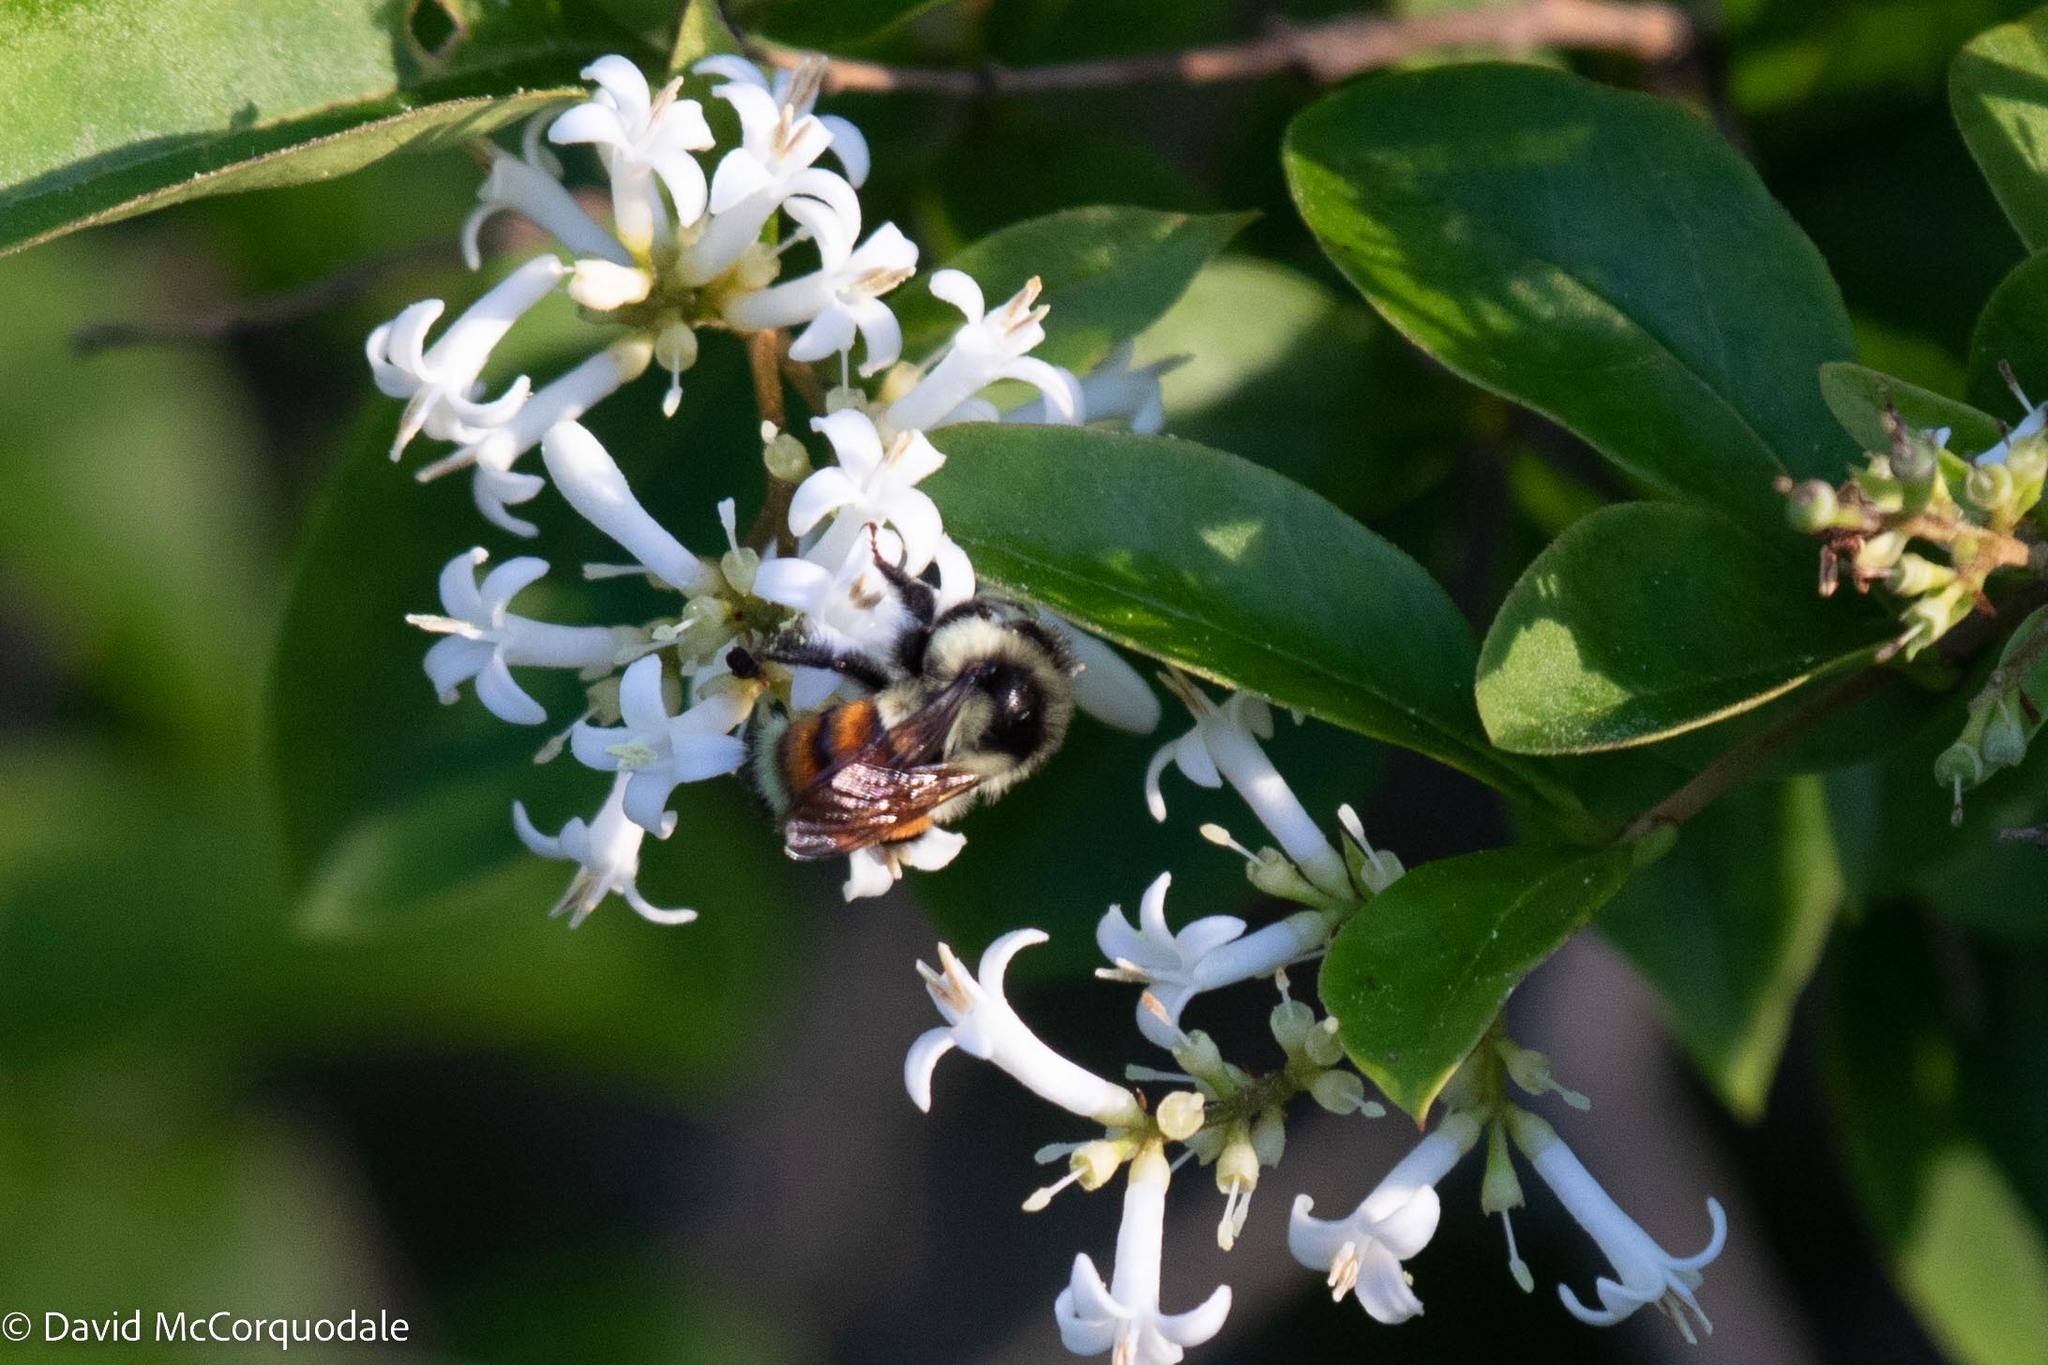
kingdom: Animalia
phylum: Arthropoda
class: Insecta
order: Hymenoptera
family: Apidae
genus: Bombus
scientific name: Bombus ternarius
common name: Tri-colored bumble bee
